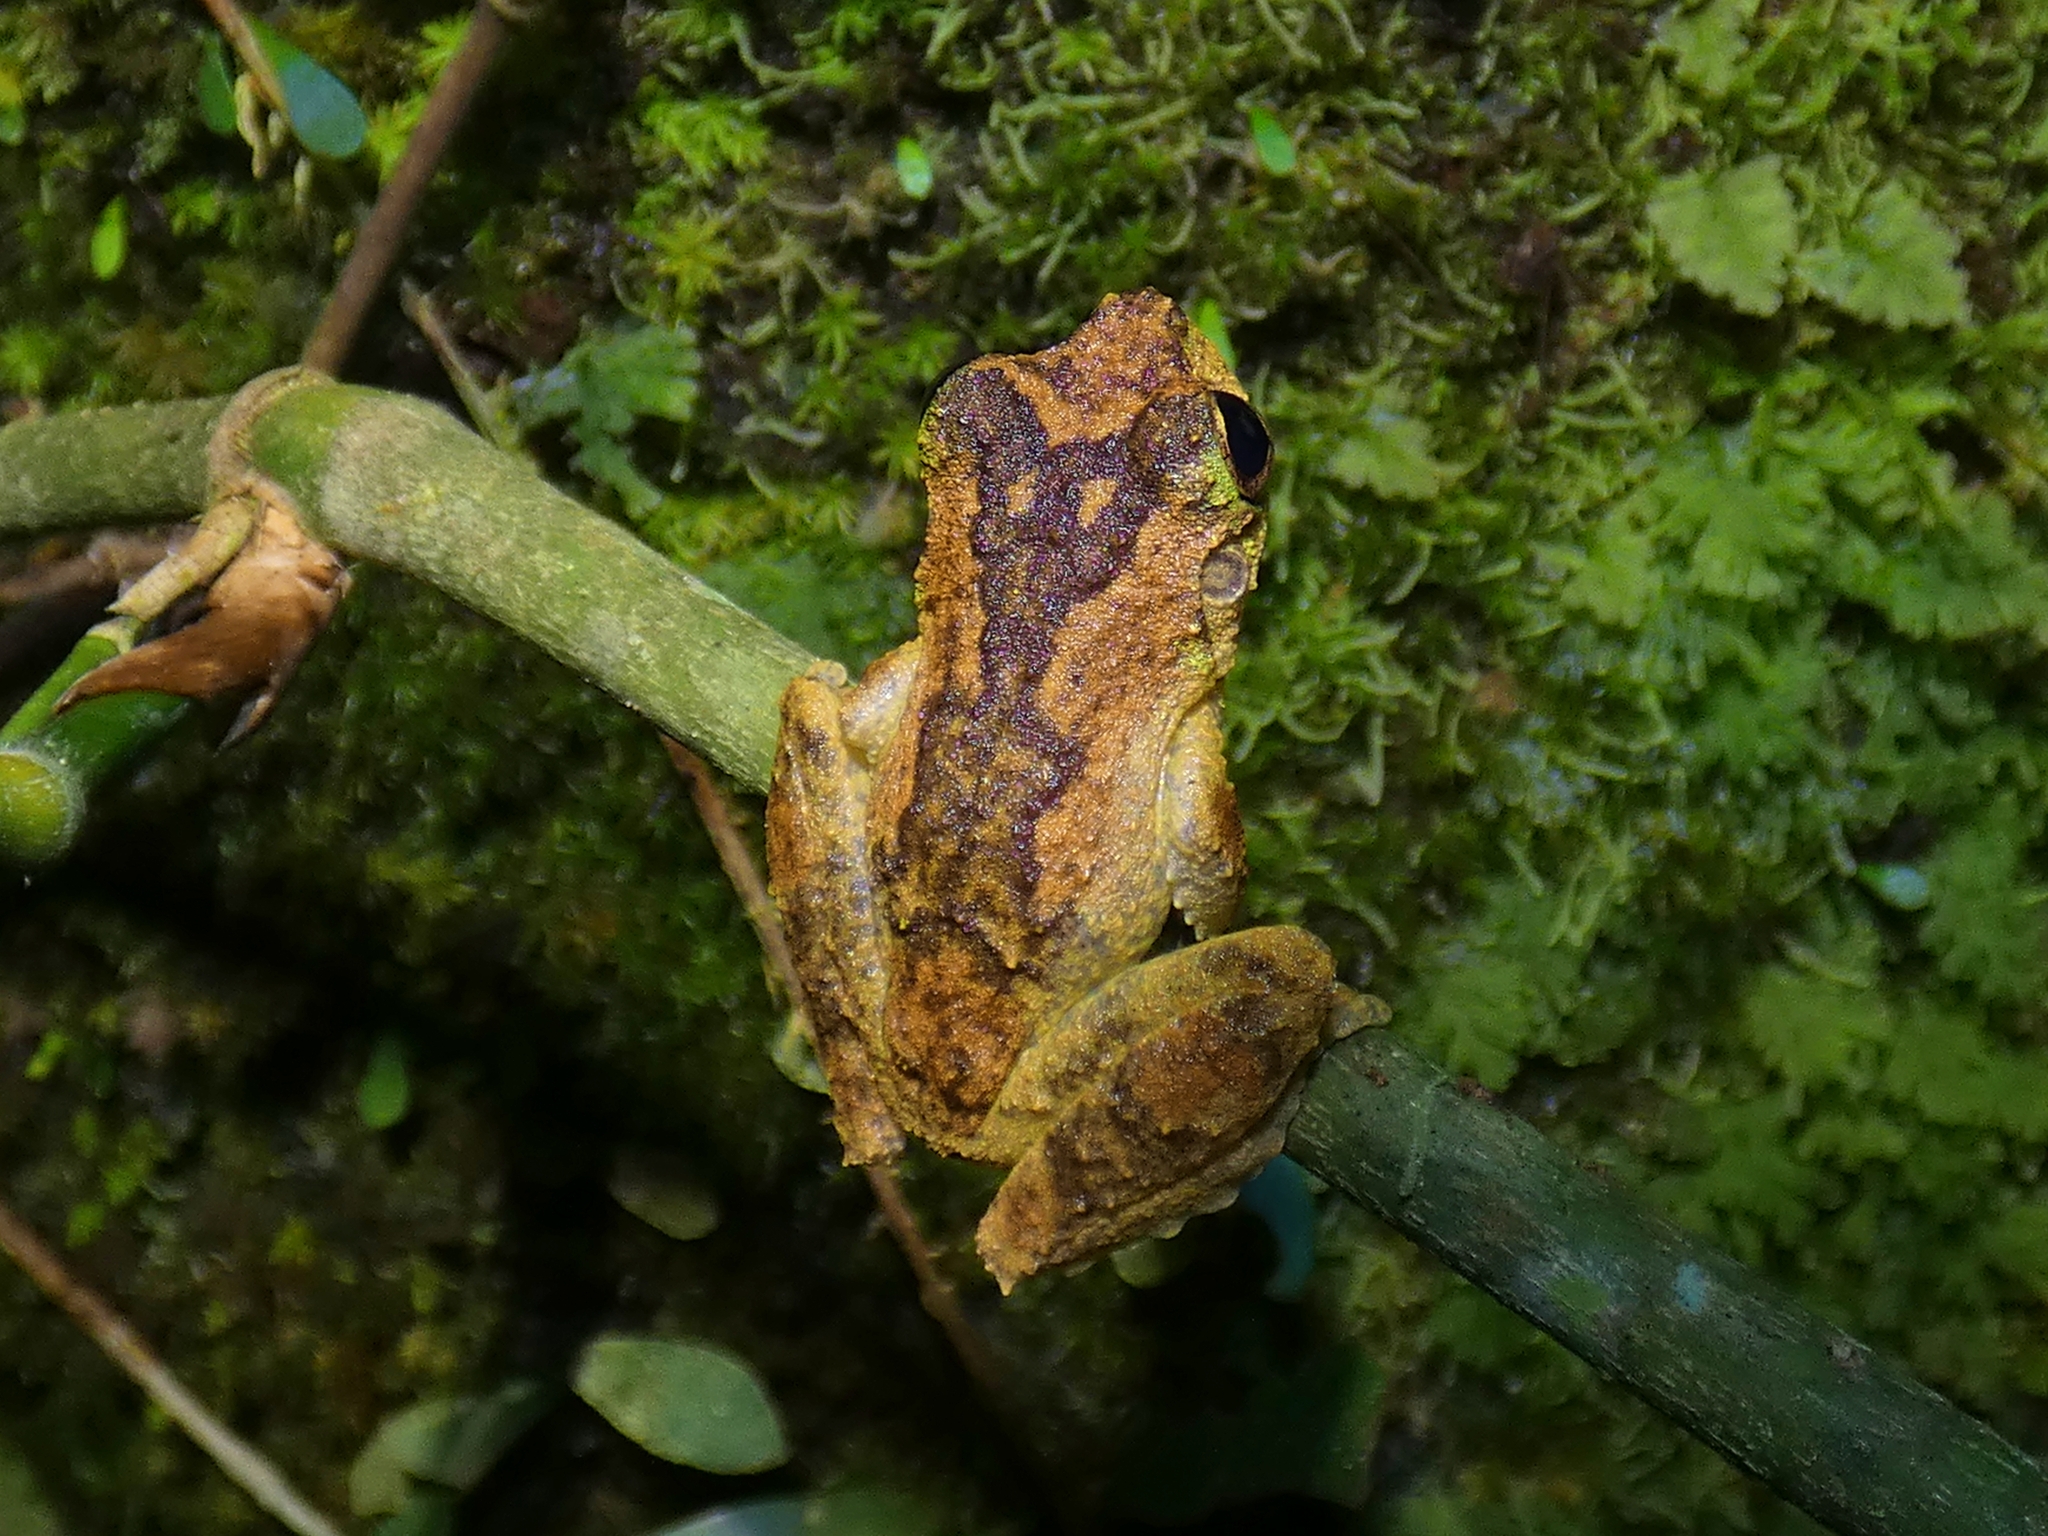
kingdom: Animalia
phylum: Chordata
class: Amphibia
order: Anura
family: Pelodryadidae
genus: Ranoidea
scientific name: Ranoidea serrata
